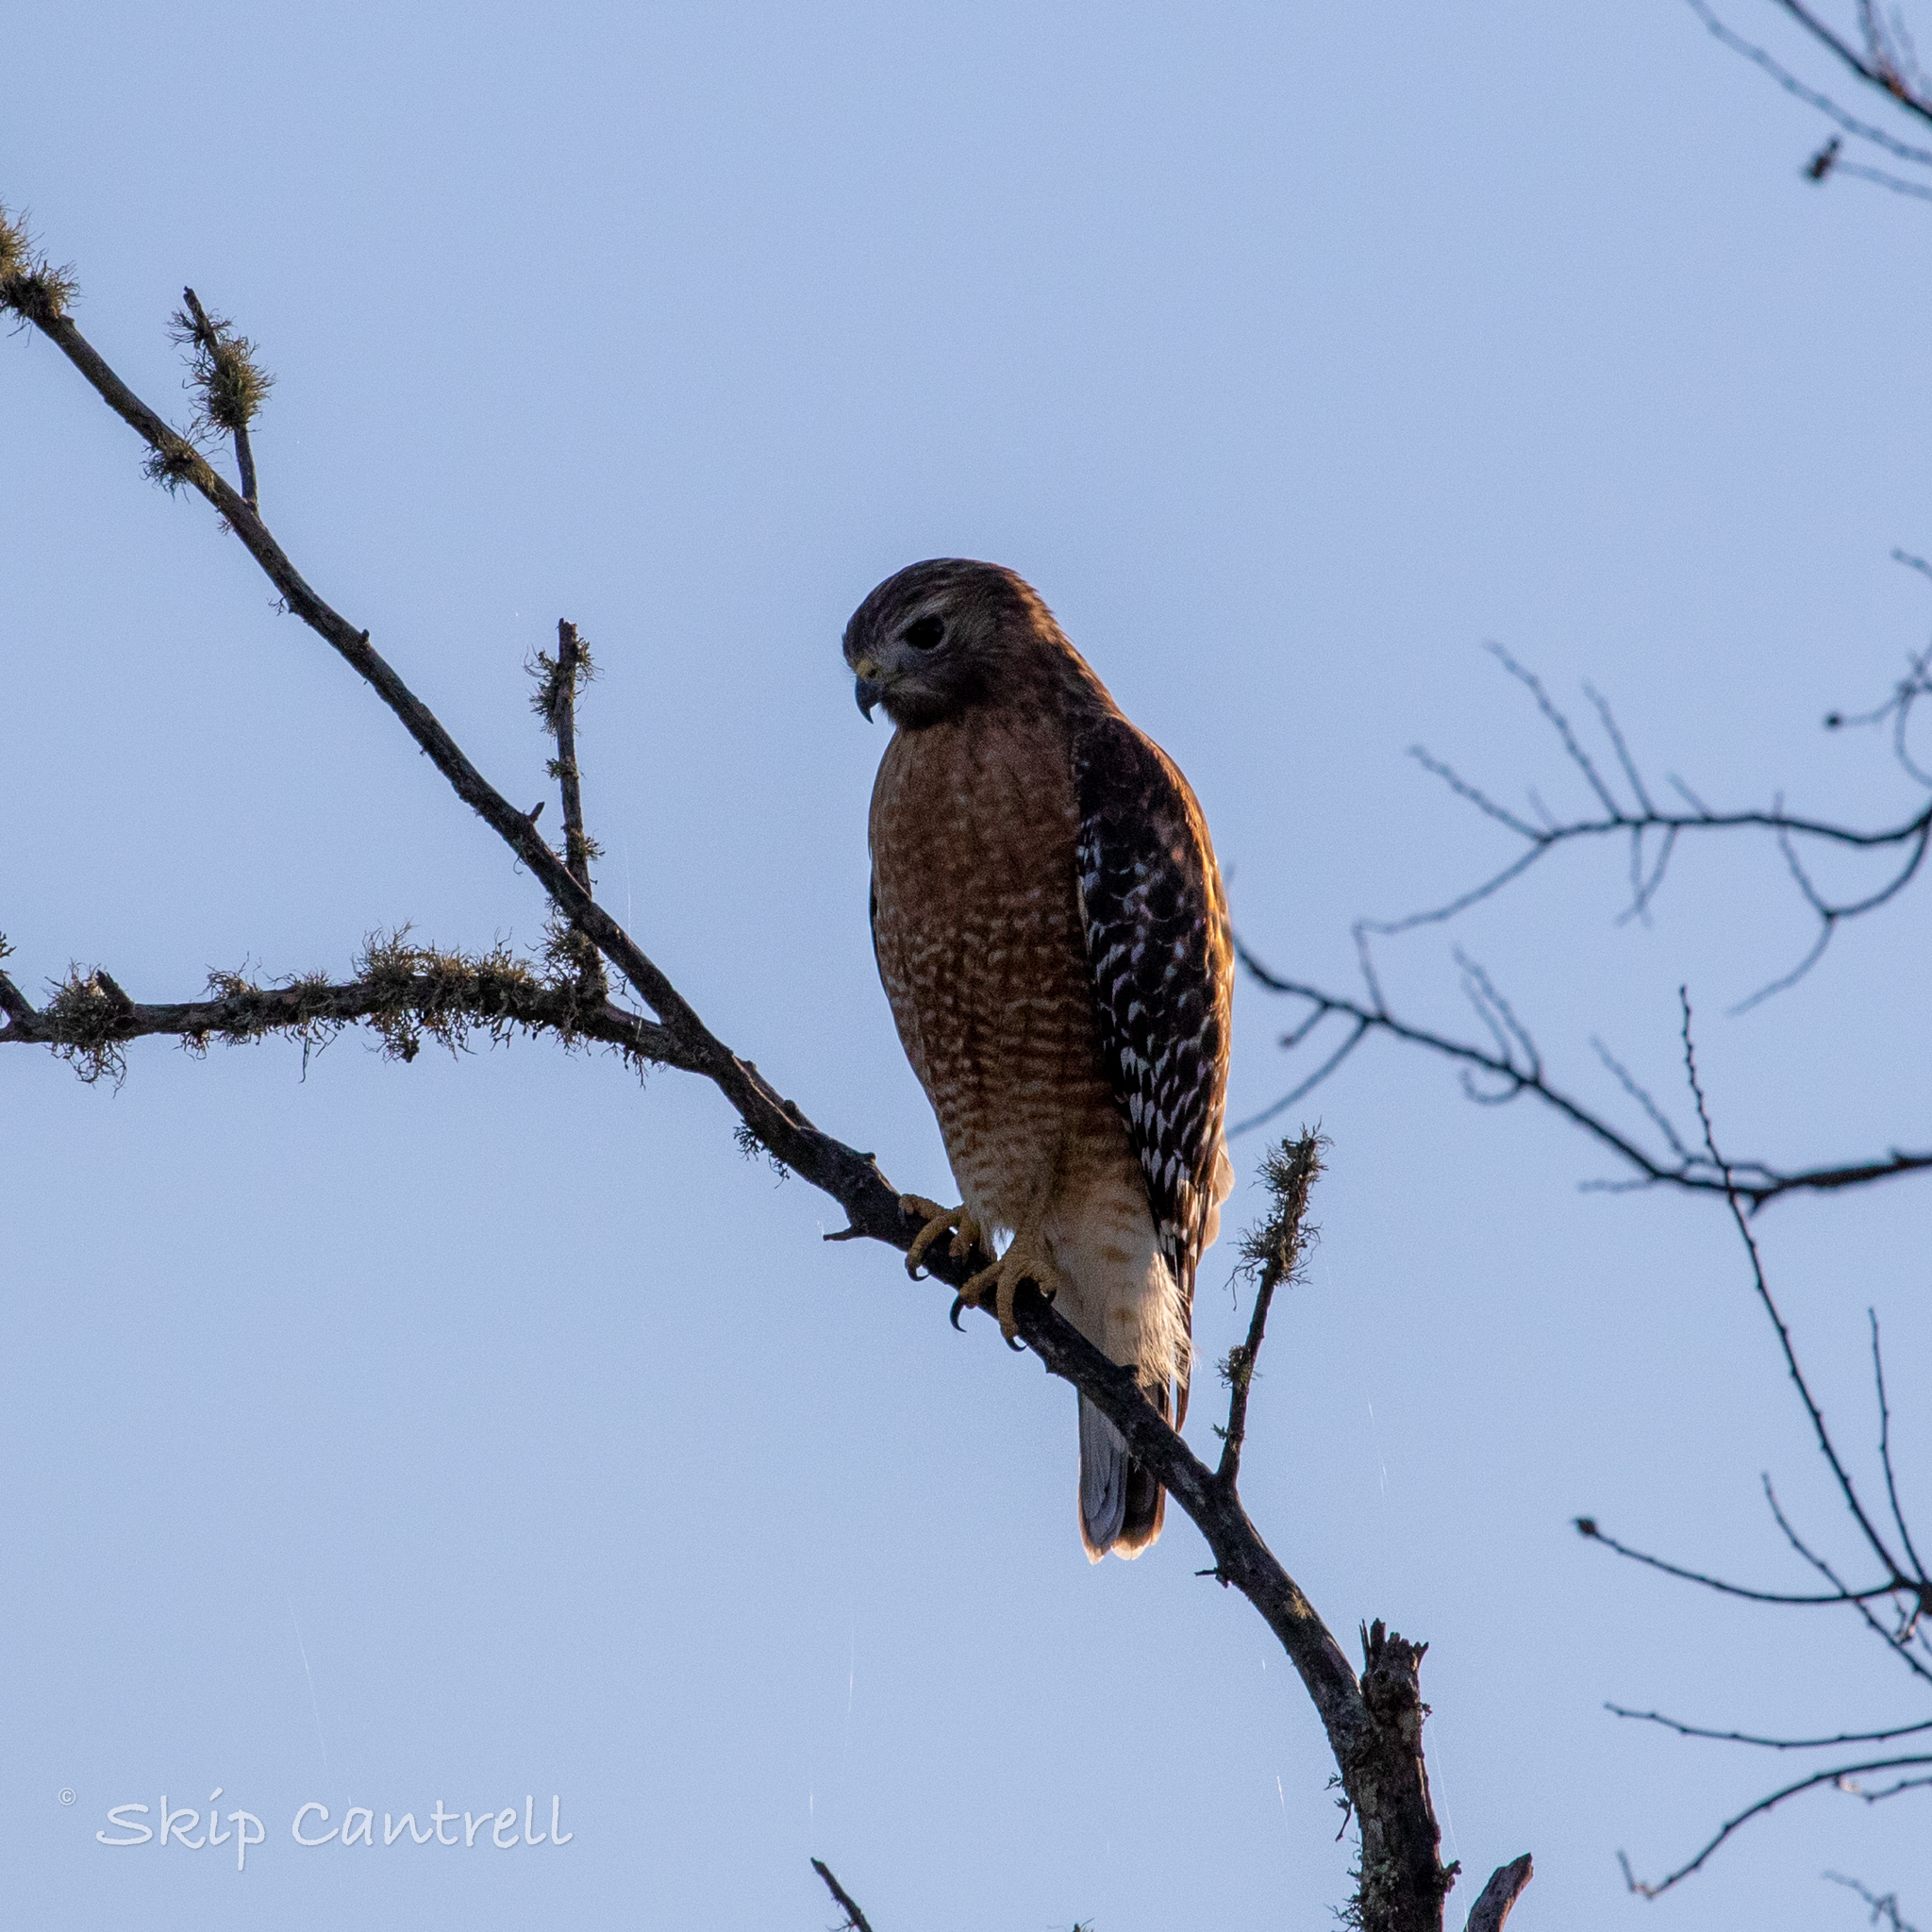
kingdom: Animalia
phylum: Chordata
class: Aves
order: Accipitriformes
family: Accipitridae
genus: Buteo
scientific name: Buteo lineatus
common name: Red-shouldered hawk
